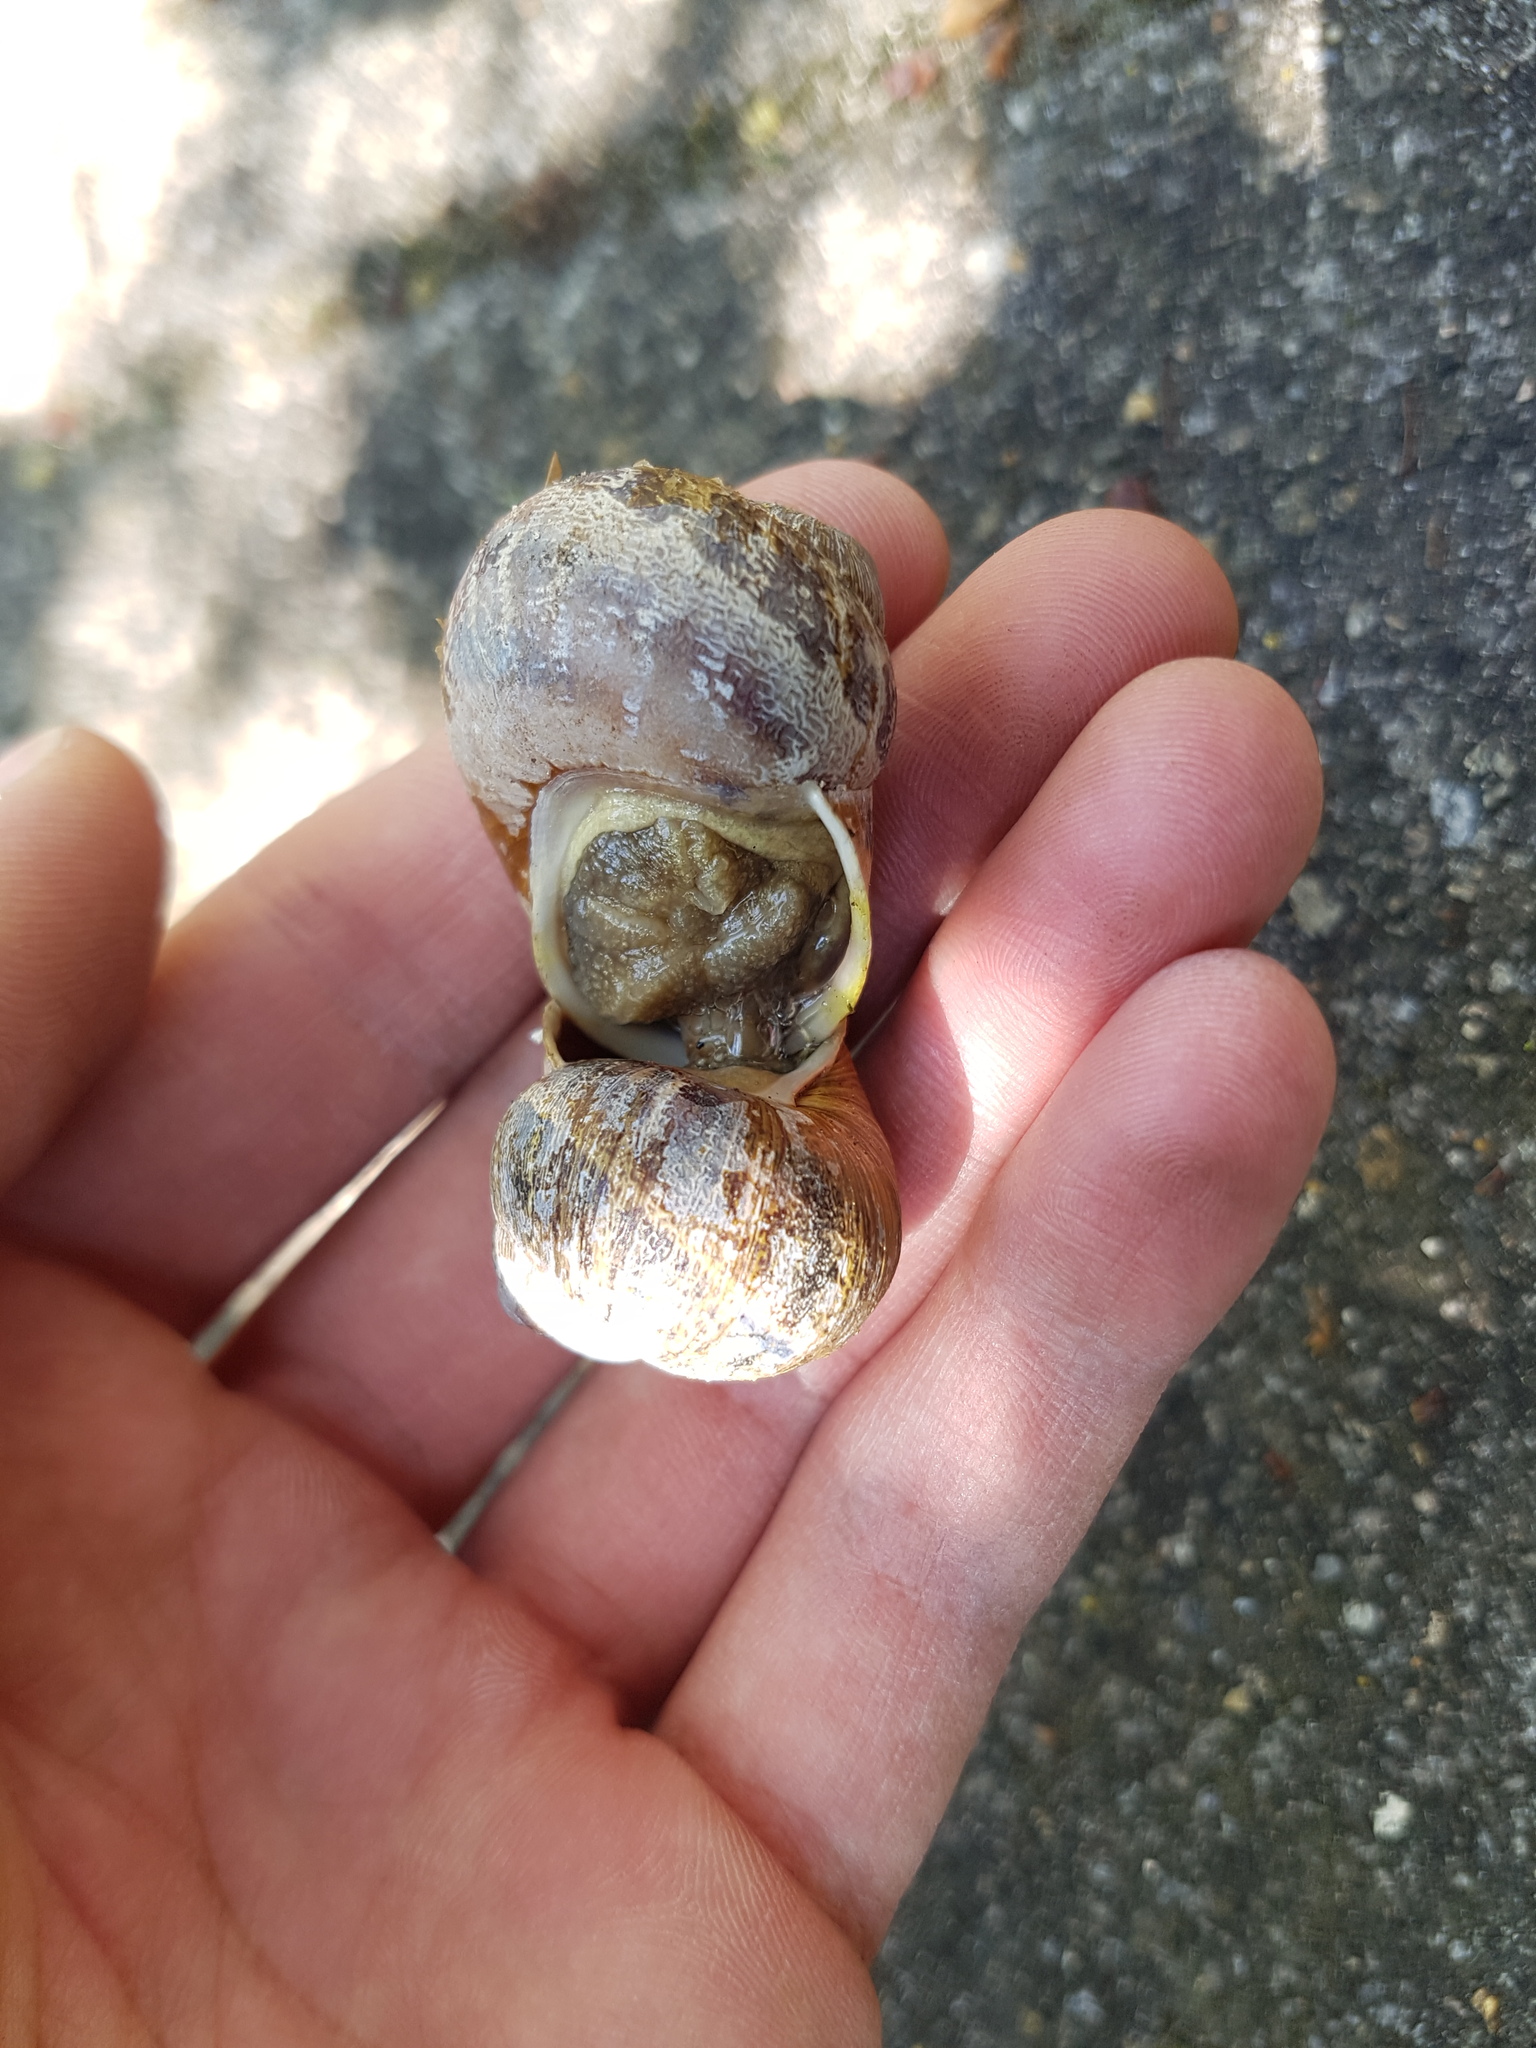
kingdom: Animalia
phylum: Mollusca
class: Gastropoda
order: Stylommatophora
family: Helicidae
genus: Cornu
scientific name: Cornu aspersum
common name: Brown garden snail
